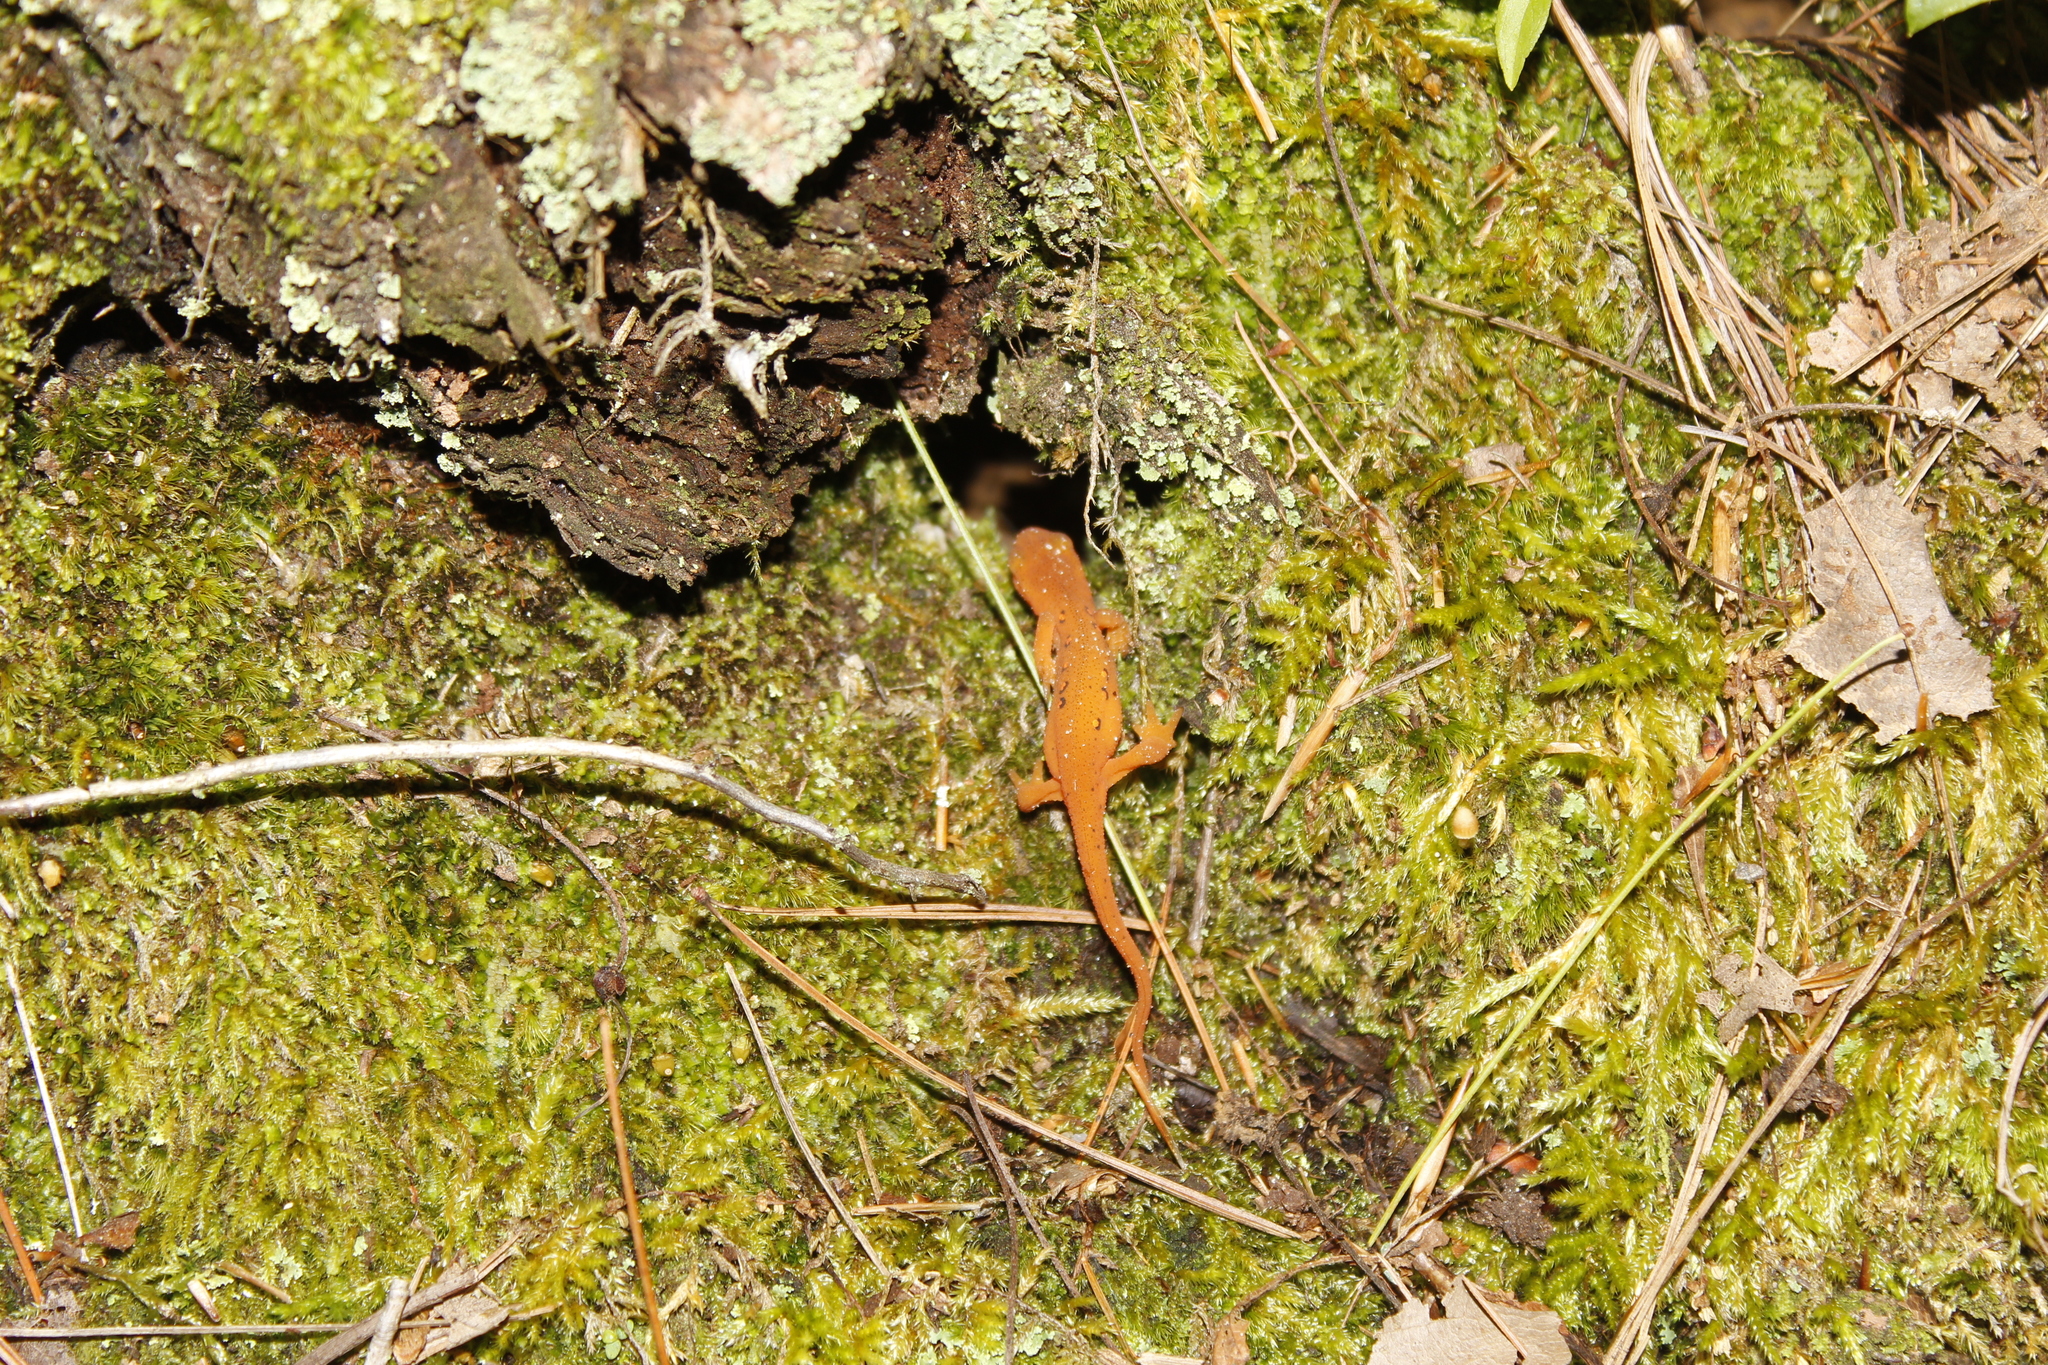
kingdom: Animalia
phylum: Chordata
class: Amphibia
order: Caudata
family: Salamandridae
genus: Notophthalmus
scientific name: Notophthalmus viridescens
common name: Eastern newt
